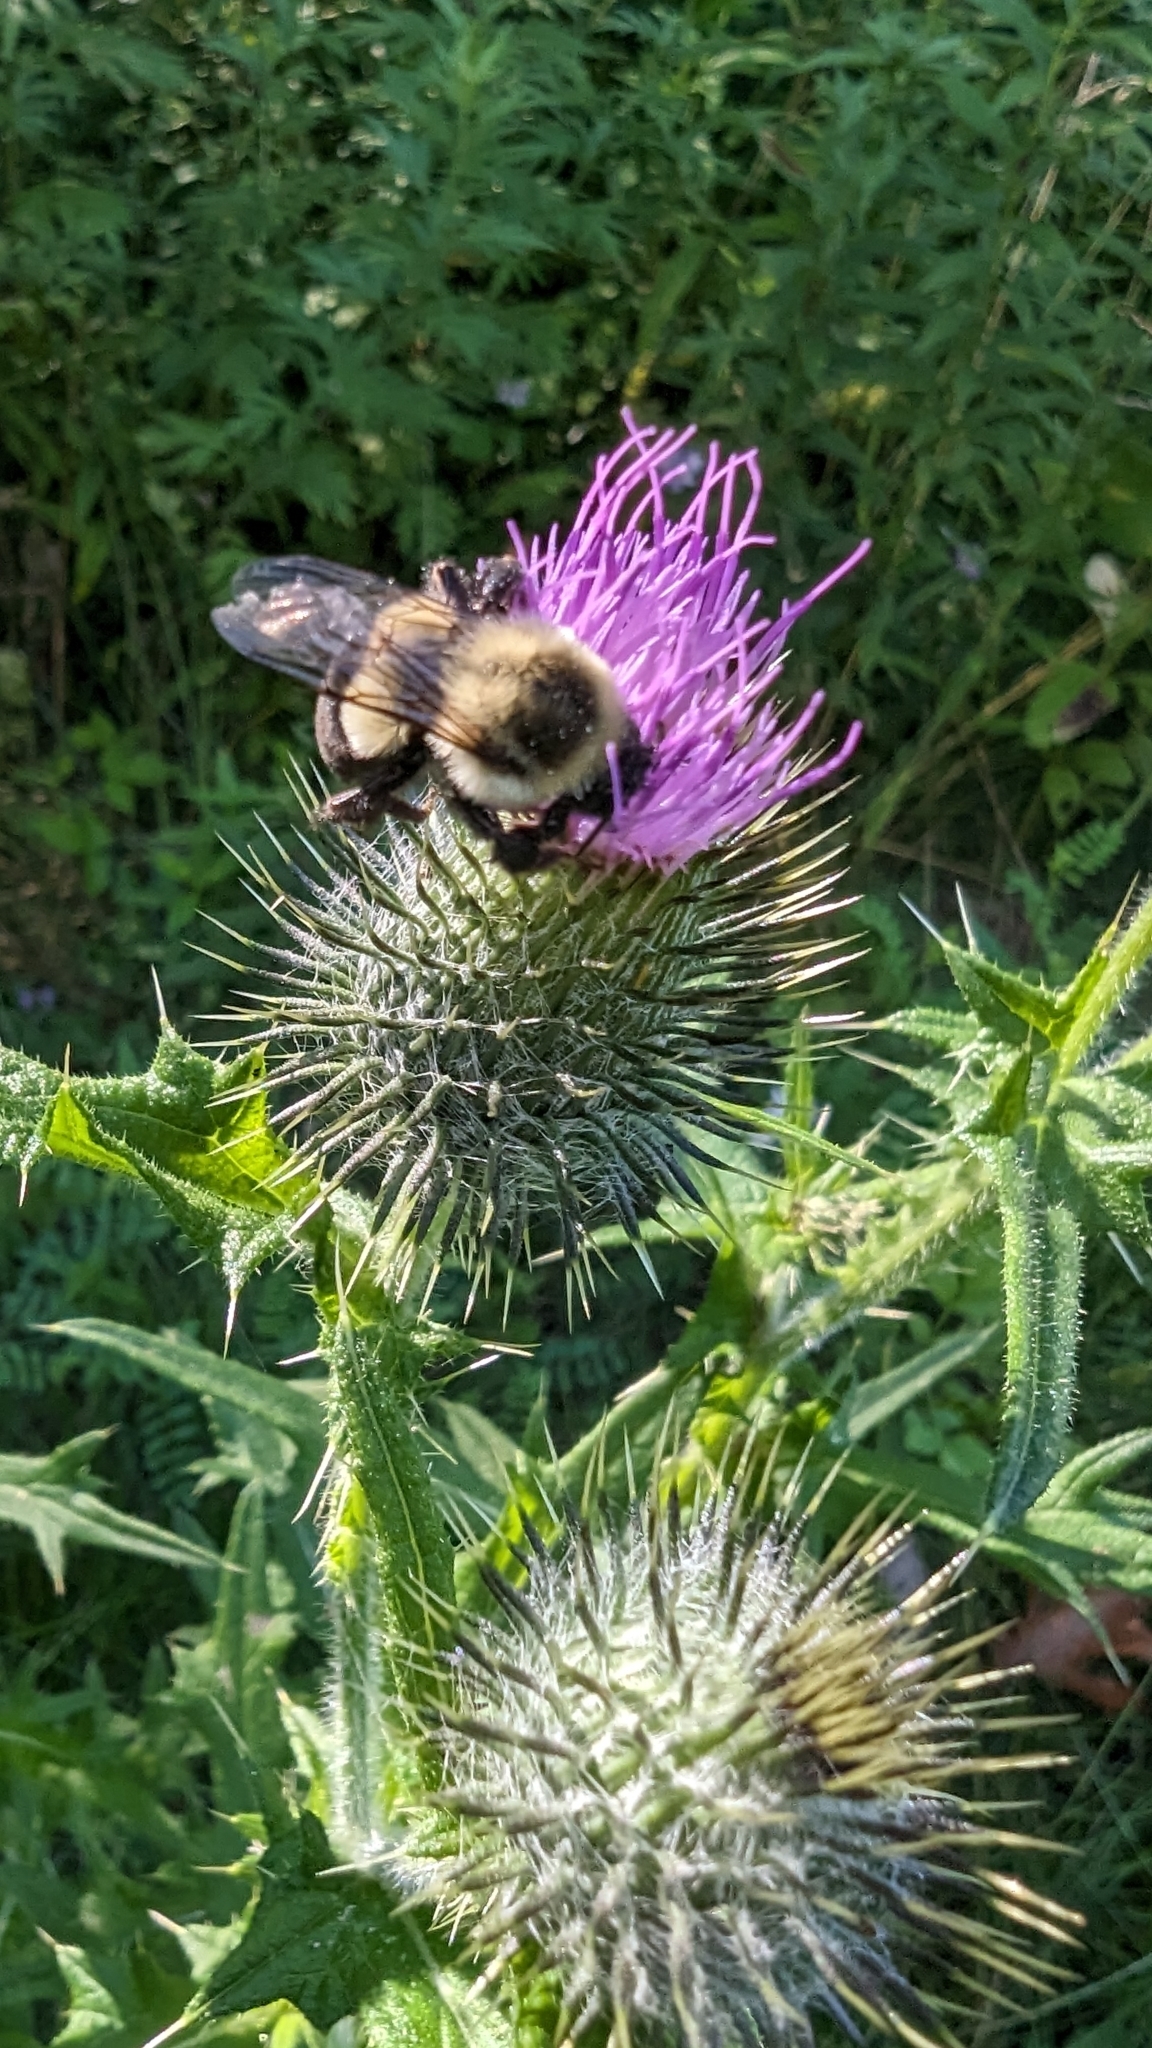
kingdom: Animalia
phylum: Arthropoda
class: Insecta
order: Hymenoptera
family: Apidae
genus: Bombus
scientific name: Bombus impatiens
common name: Common eastern bumble bee
